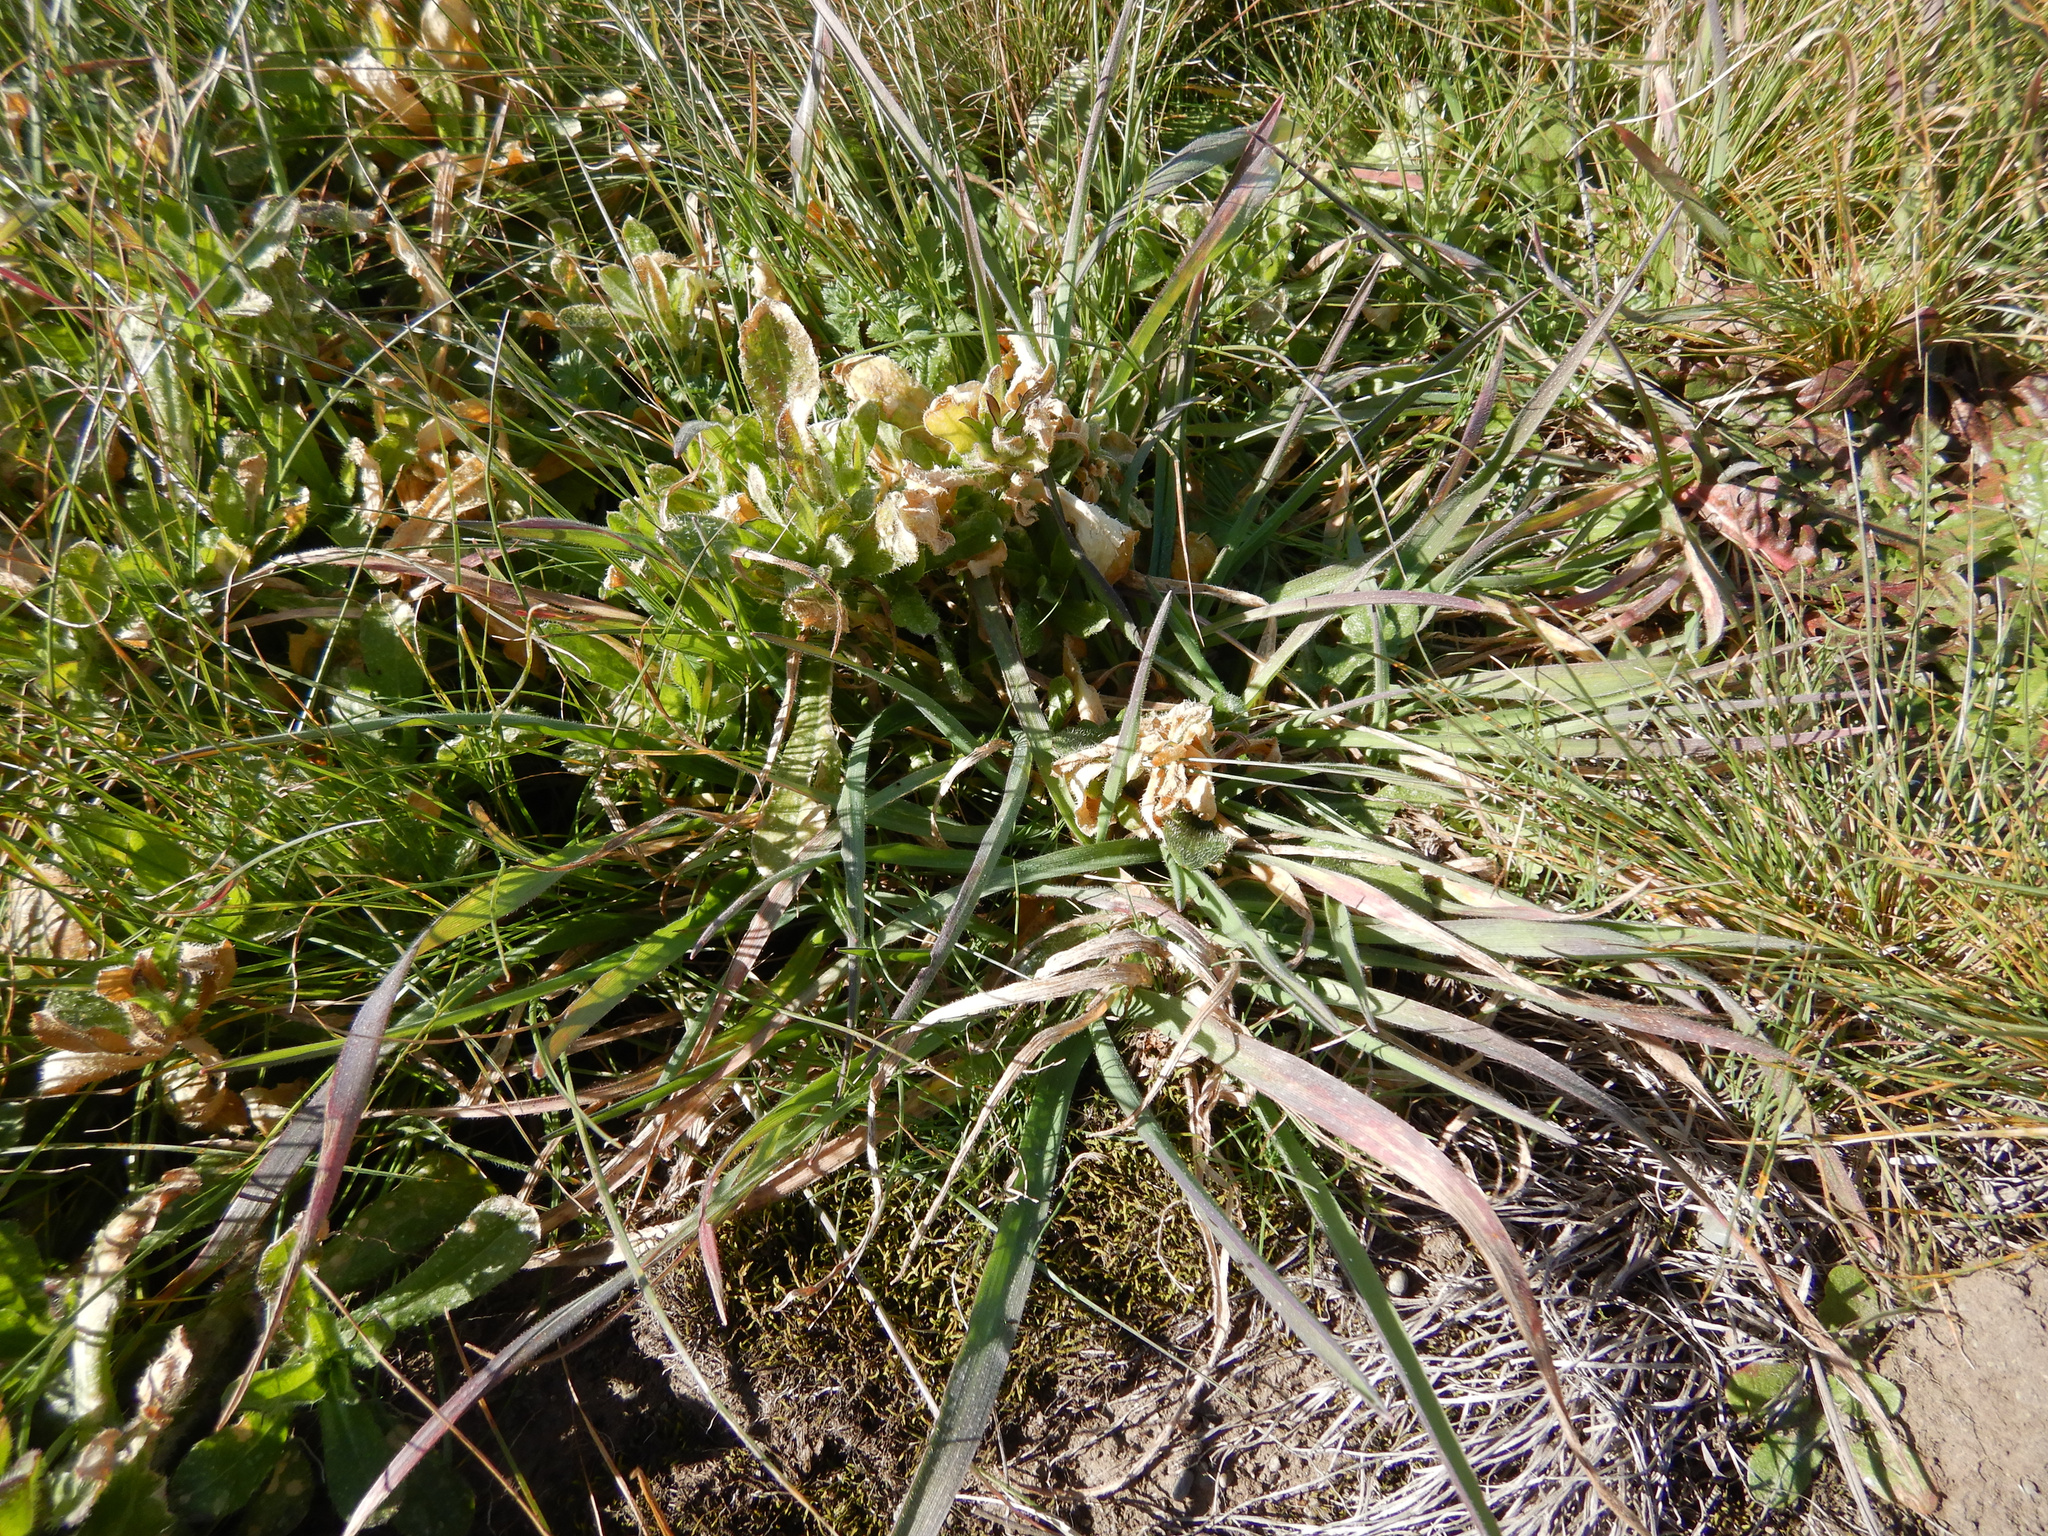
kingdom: Plantae
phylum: Tracheophyta
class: Liliopsida
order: Poales
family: Poaceae
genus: Holcus
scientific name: Holcus lanatus
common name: Yorkshire-fog
